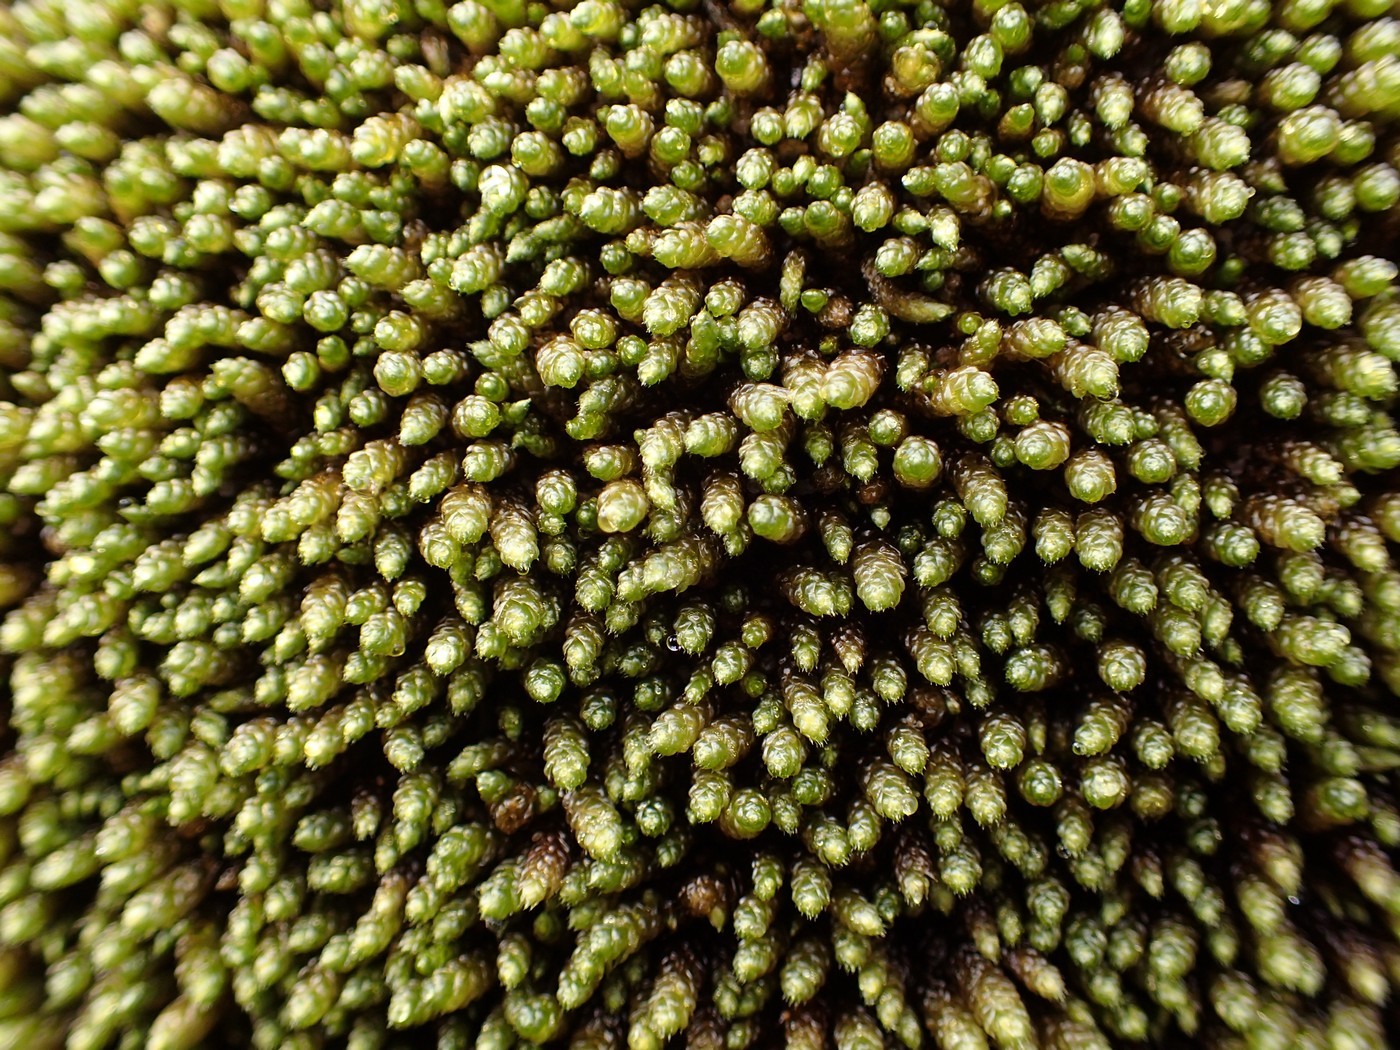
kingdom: Plantae
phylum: Bryophyta
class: Bryopsida
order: Hypnales
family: Brachytheciaceae
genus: Bryoandersonia
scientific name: Bryoandersonia illecebra
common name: Spoon-leaved moss
